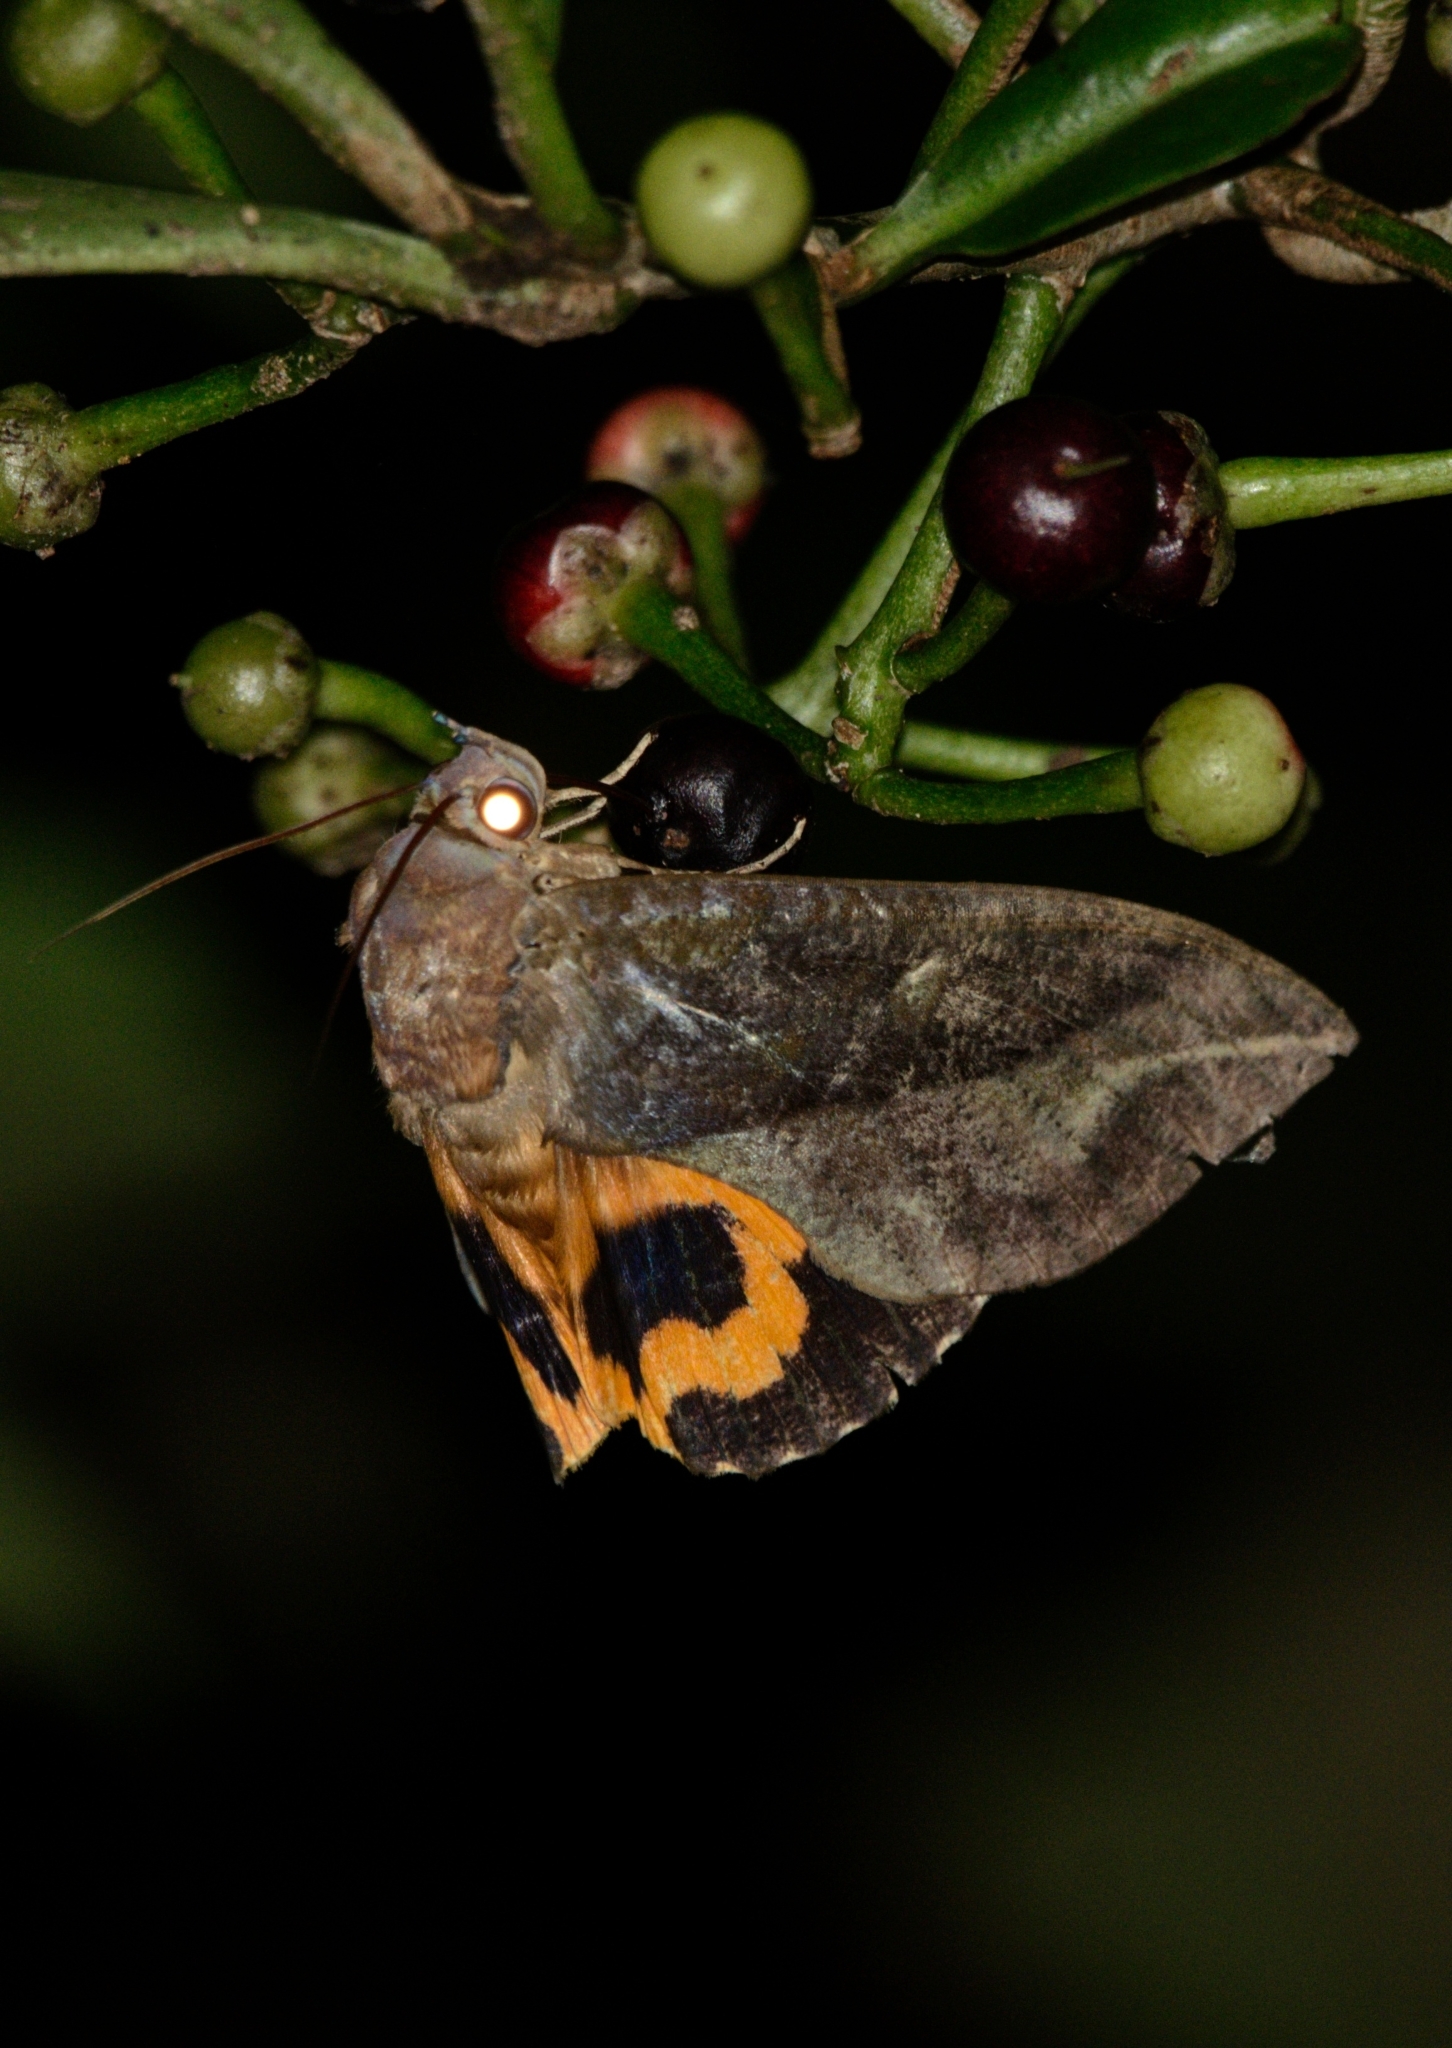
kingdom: Animalia
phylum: Arthropoda
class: Insecta
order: Lepidoptera
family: Erebidae
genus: Eudocima
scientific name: Eudocima phalonia
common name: Wasp
